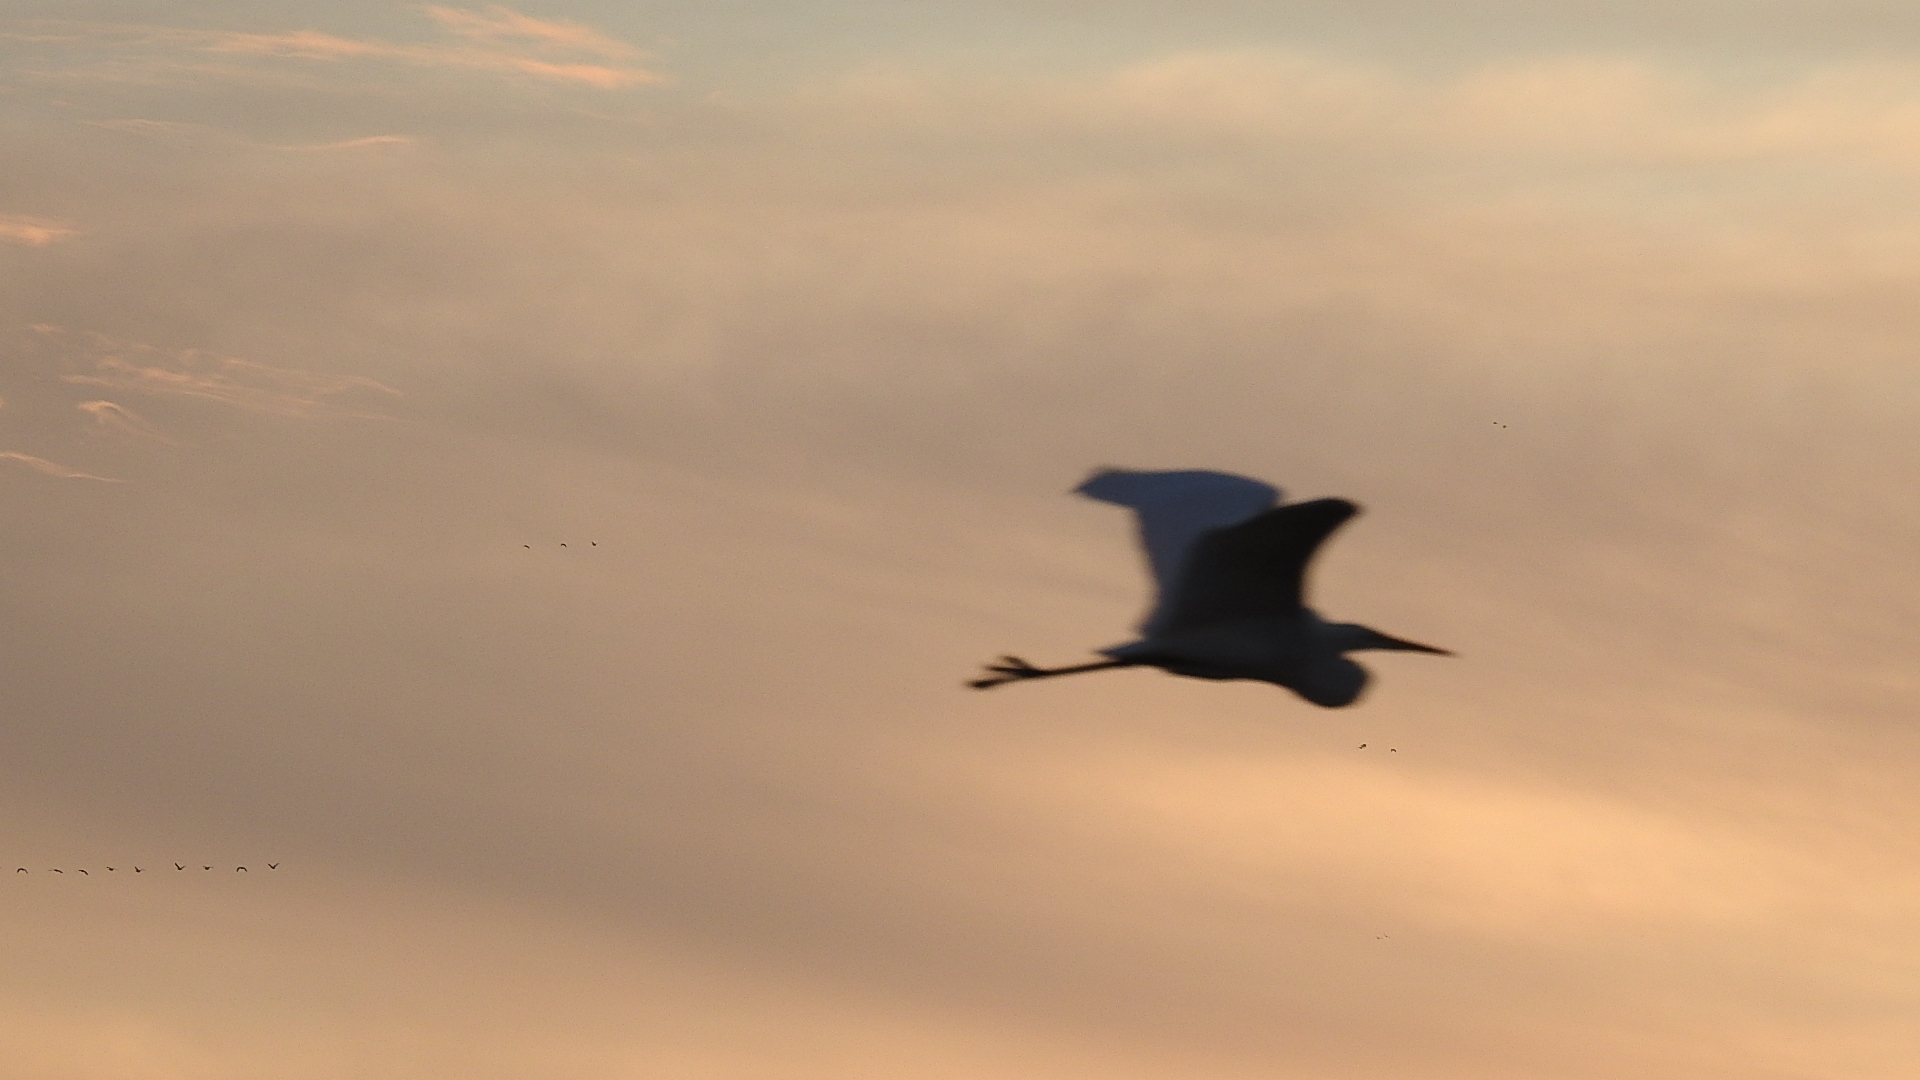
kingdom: Animalia
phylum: Chordata
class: Aves
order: Pelecaniformes
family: Ardeidae
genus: Ardea
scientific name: Ardea alba
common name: Great egret
